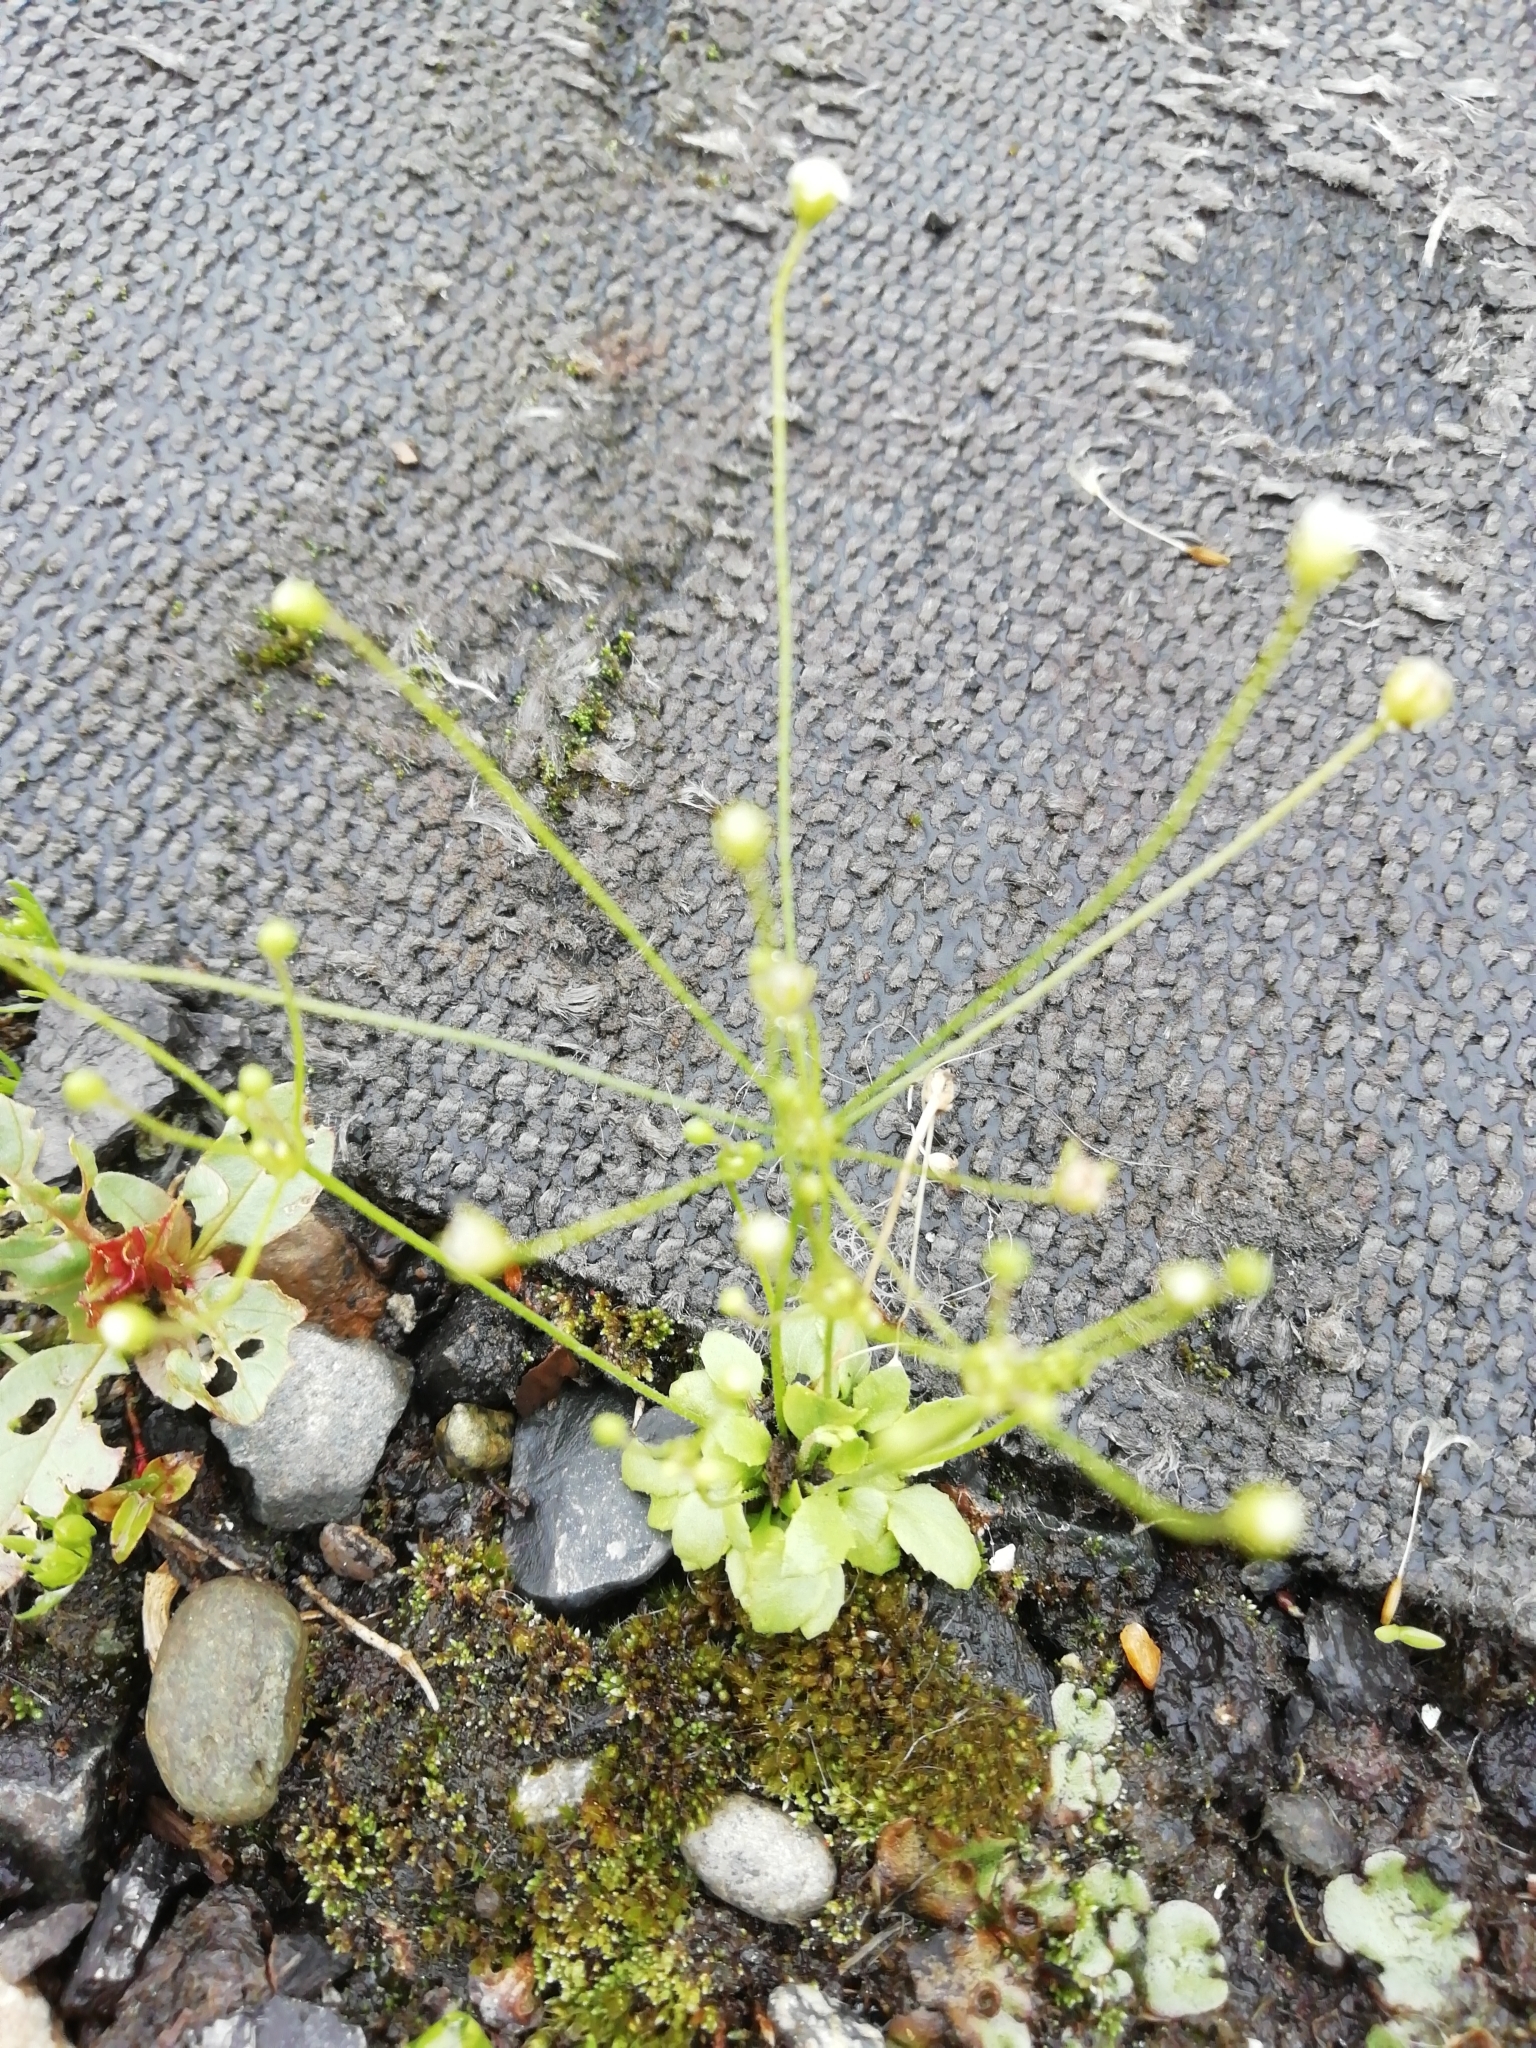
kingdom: Plantae
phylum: Tracheophyta
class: Magnoliopsida
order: Ericales
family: Primulaceae
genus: Androsace
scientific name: Androsace filiformis
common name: Filiform rock jasmine
